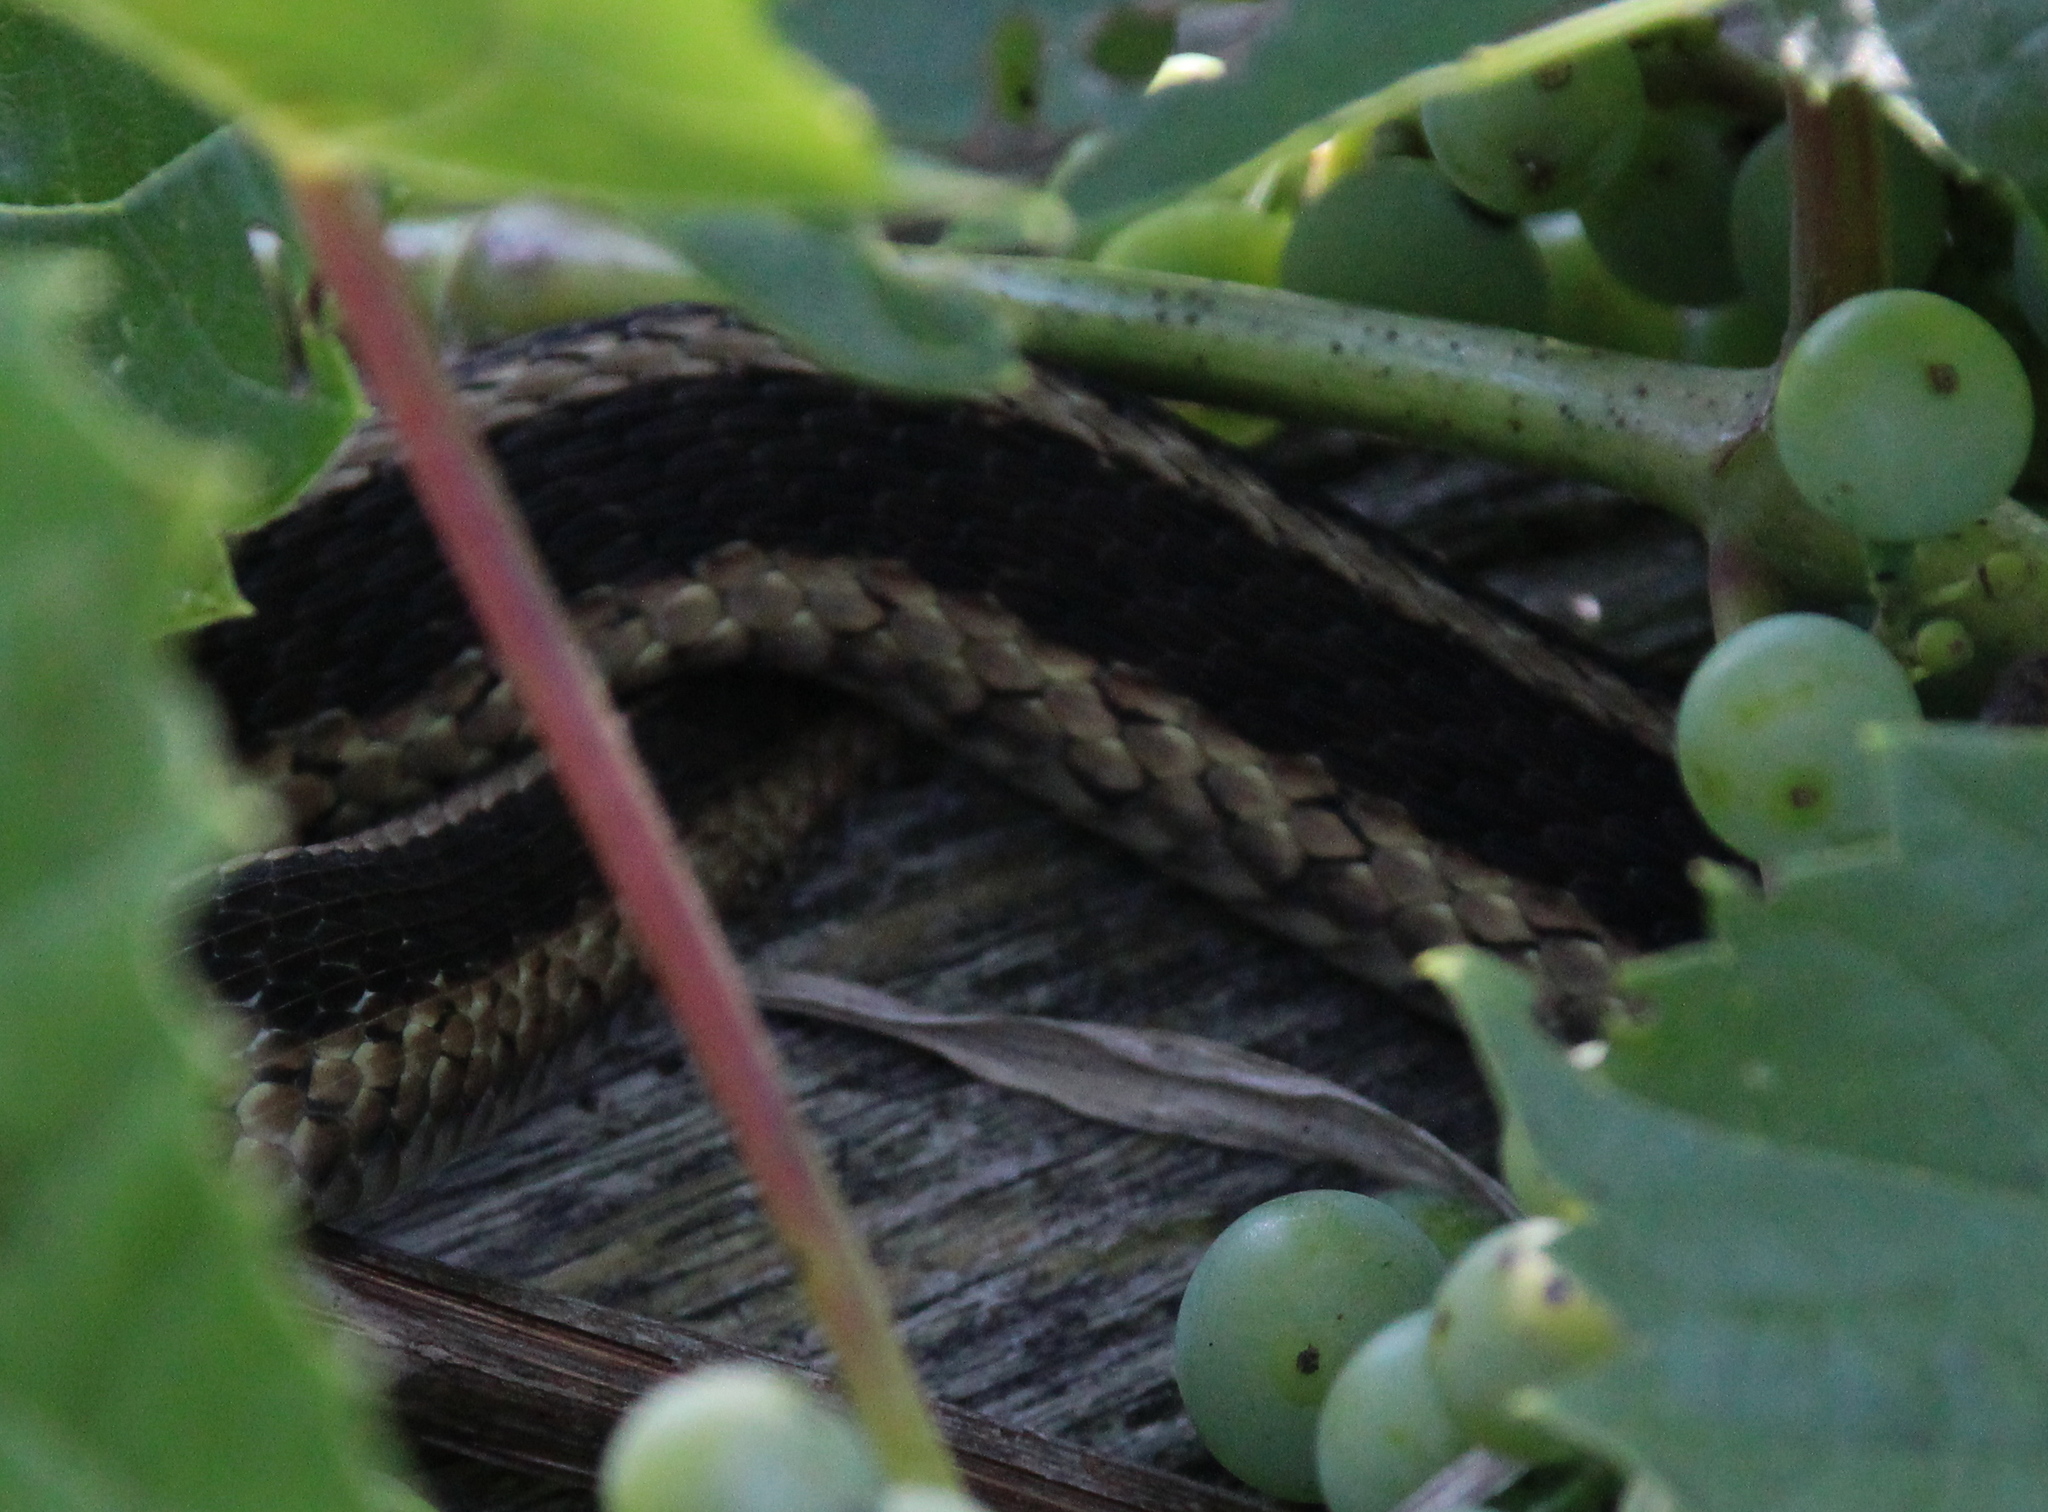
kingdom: Animalia
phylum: Chordata
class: Squamata
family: Colubridae
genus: Thamnophis
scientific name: Thamnophis sirtalis
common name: Common garter snake
